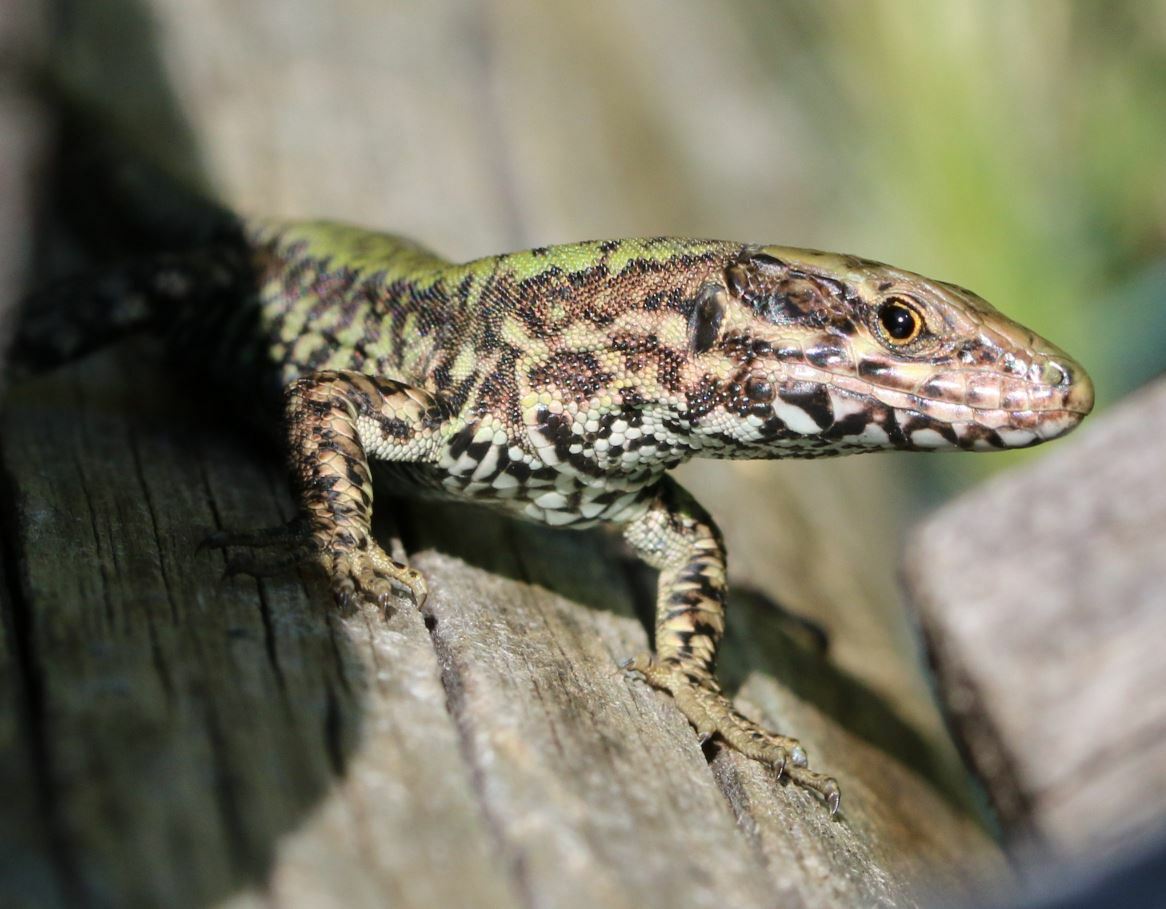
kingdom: Animalia
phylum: Chordata
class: Squamata
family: Lacertidae
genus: Podarcis
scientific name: Podarcis muralis
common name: Common wall lizard
